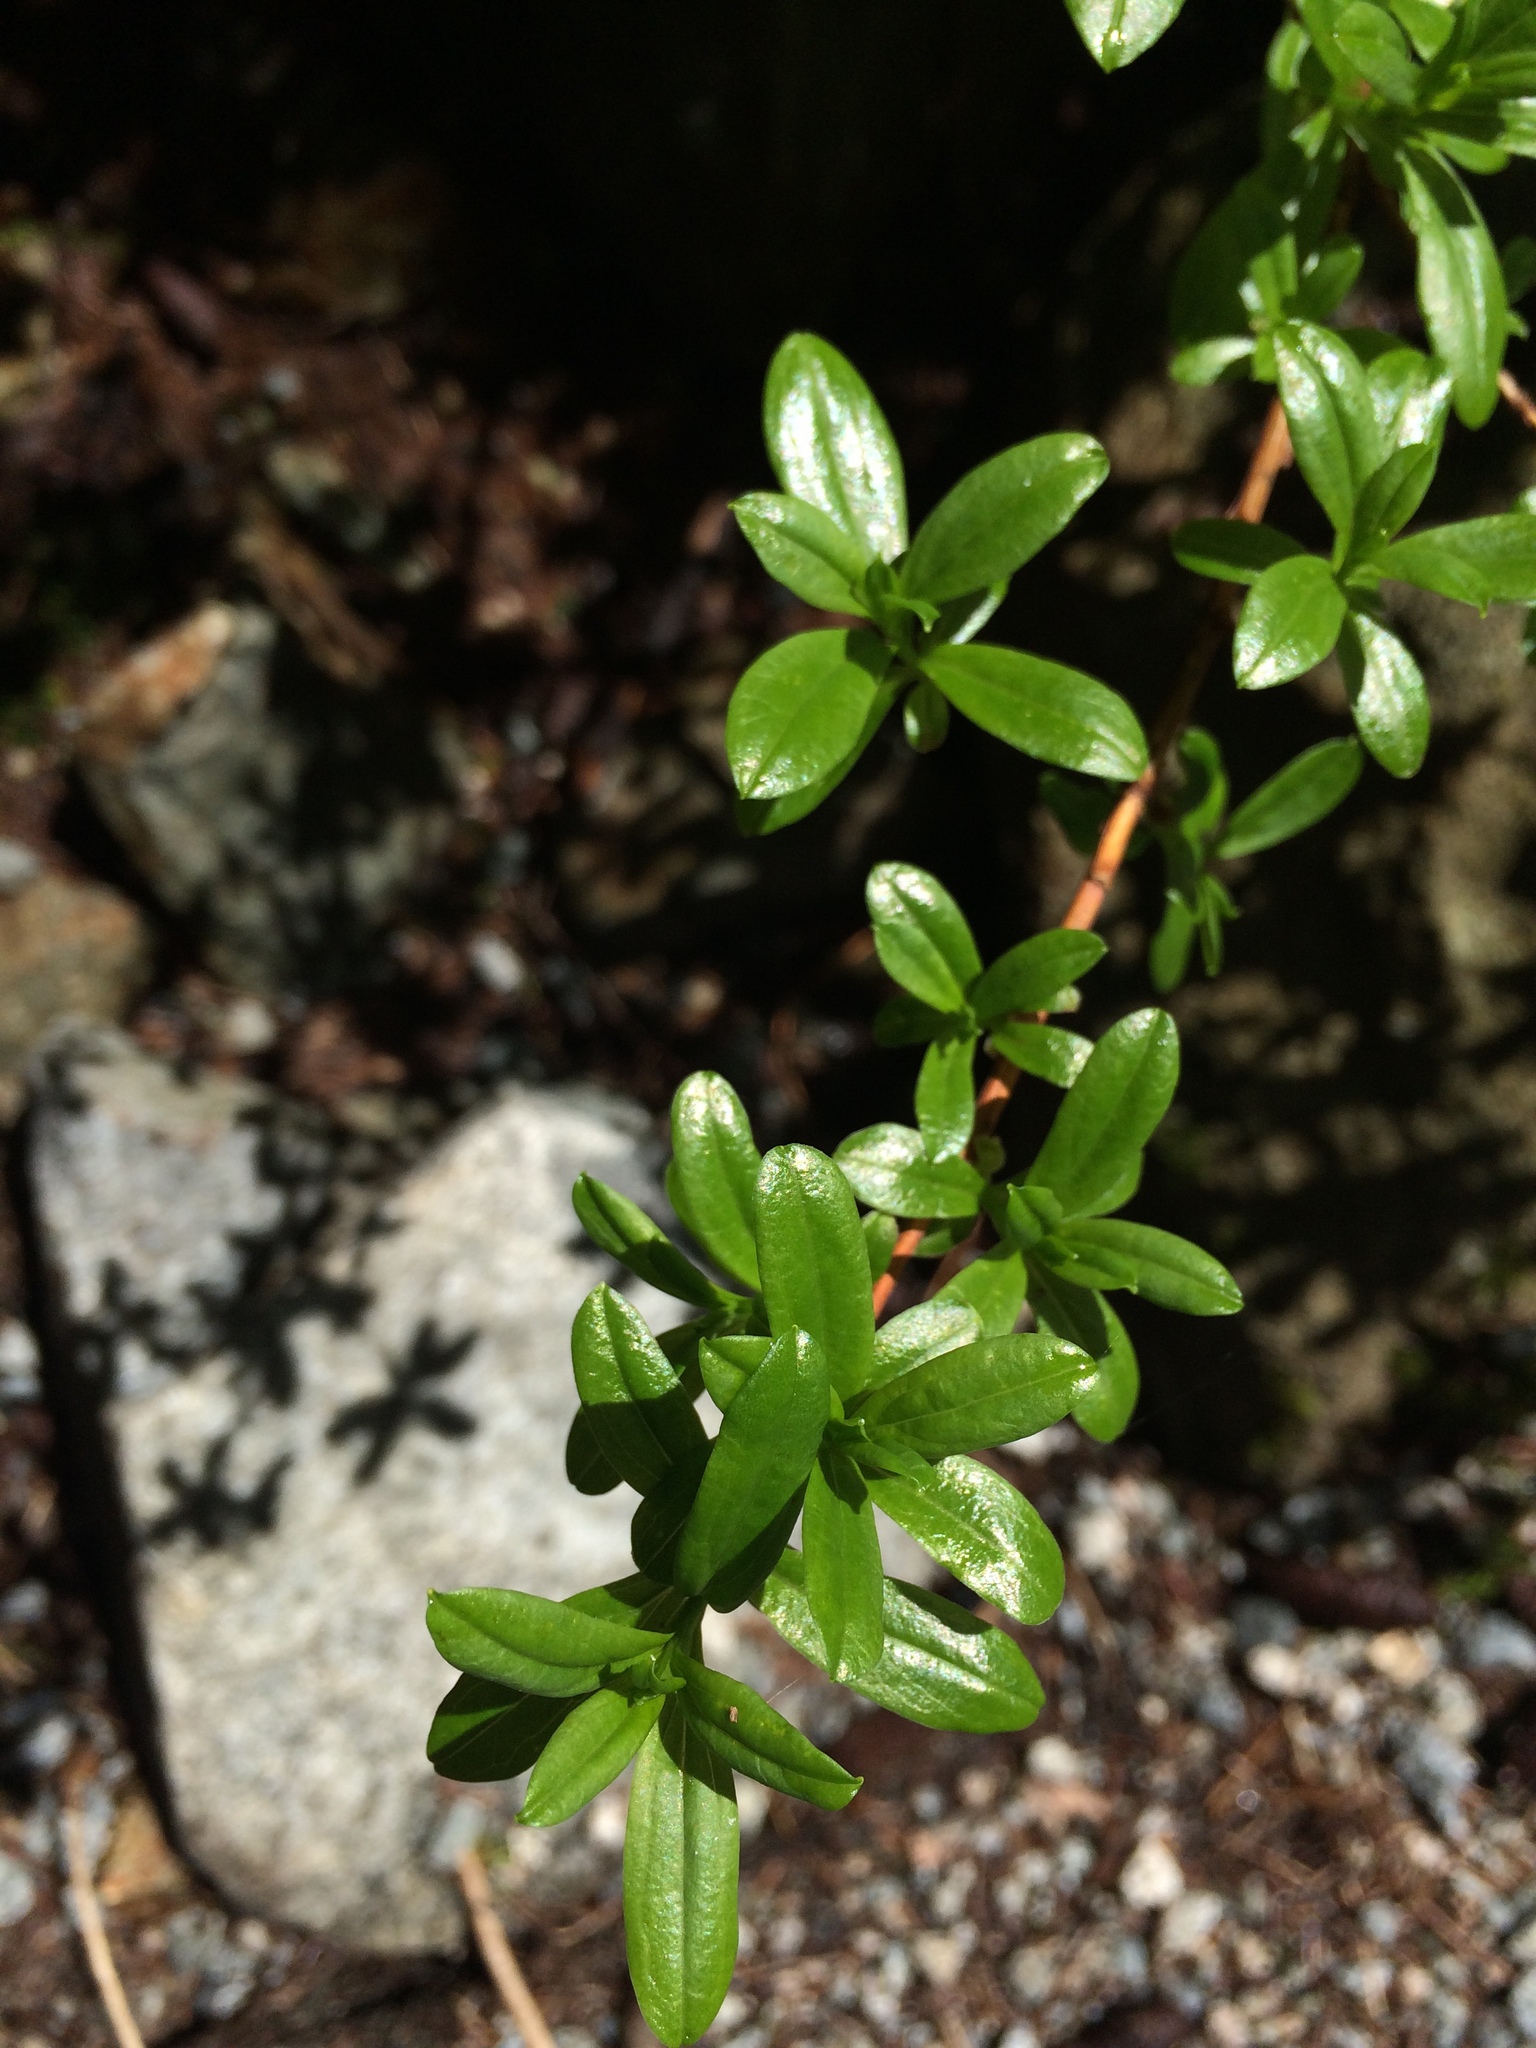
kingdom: Plantae
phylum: Tracheophyta
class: Magnoliopsida
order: Ericales
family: Ericaceae
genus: Elliottia
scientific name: Elliottia pyroliflora
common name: Copperbush
